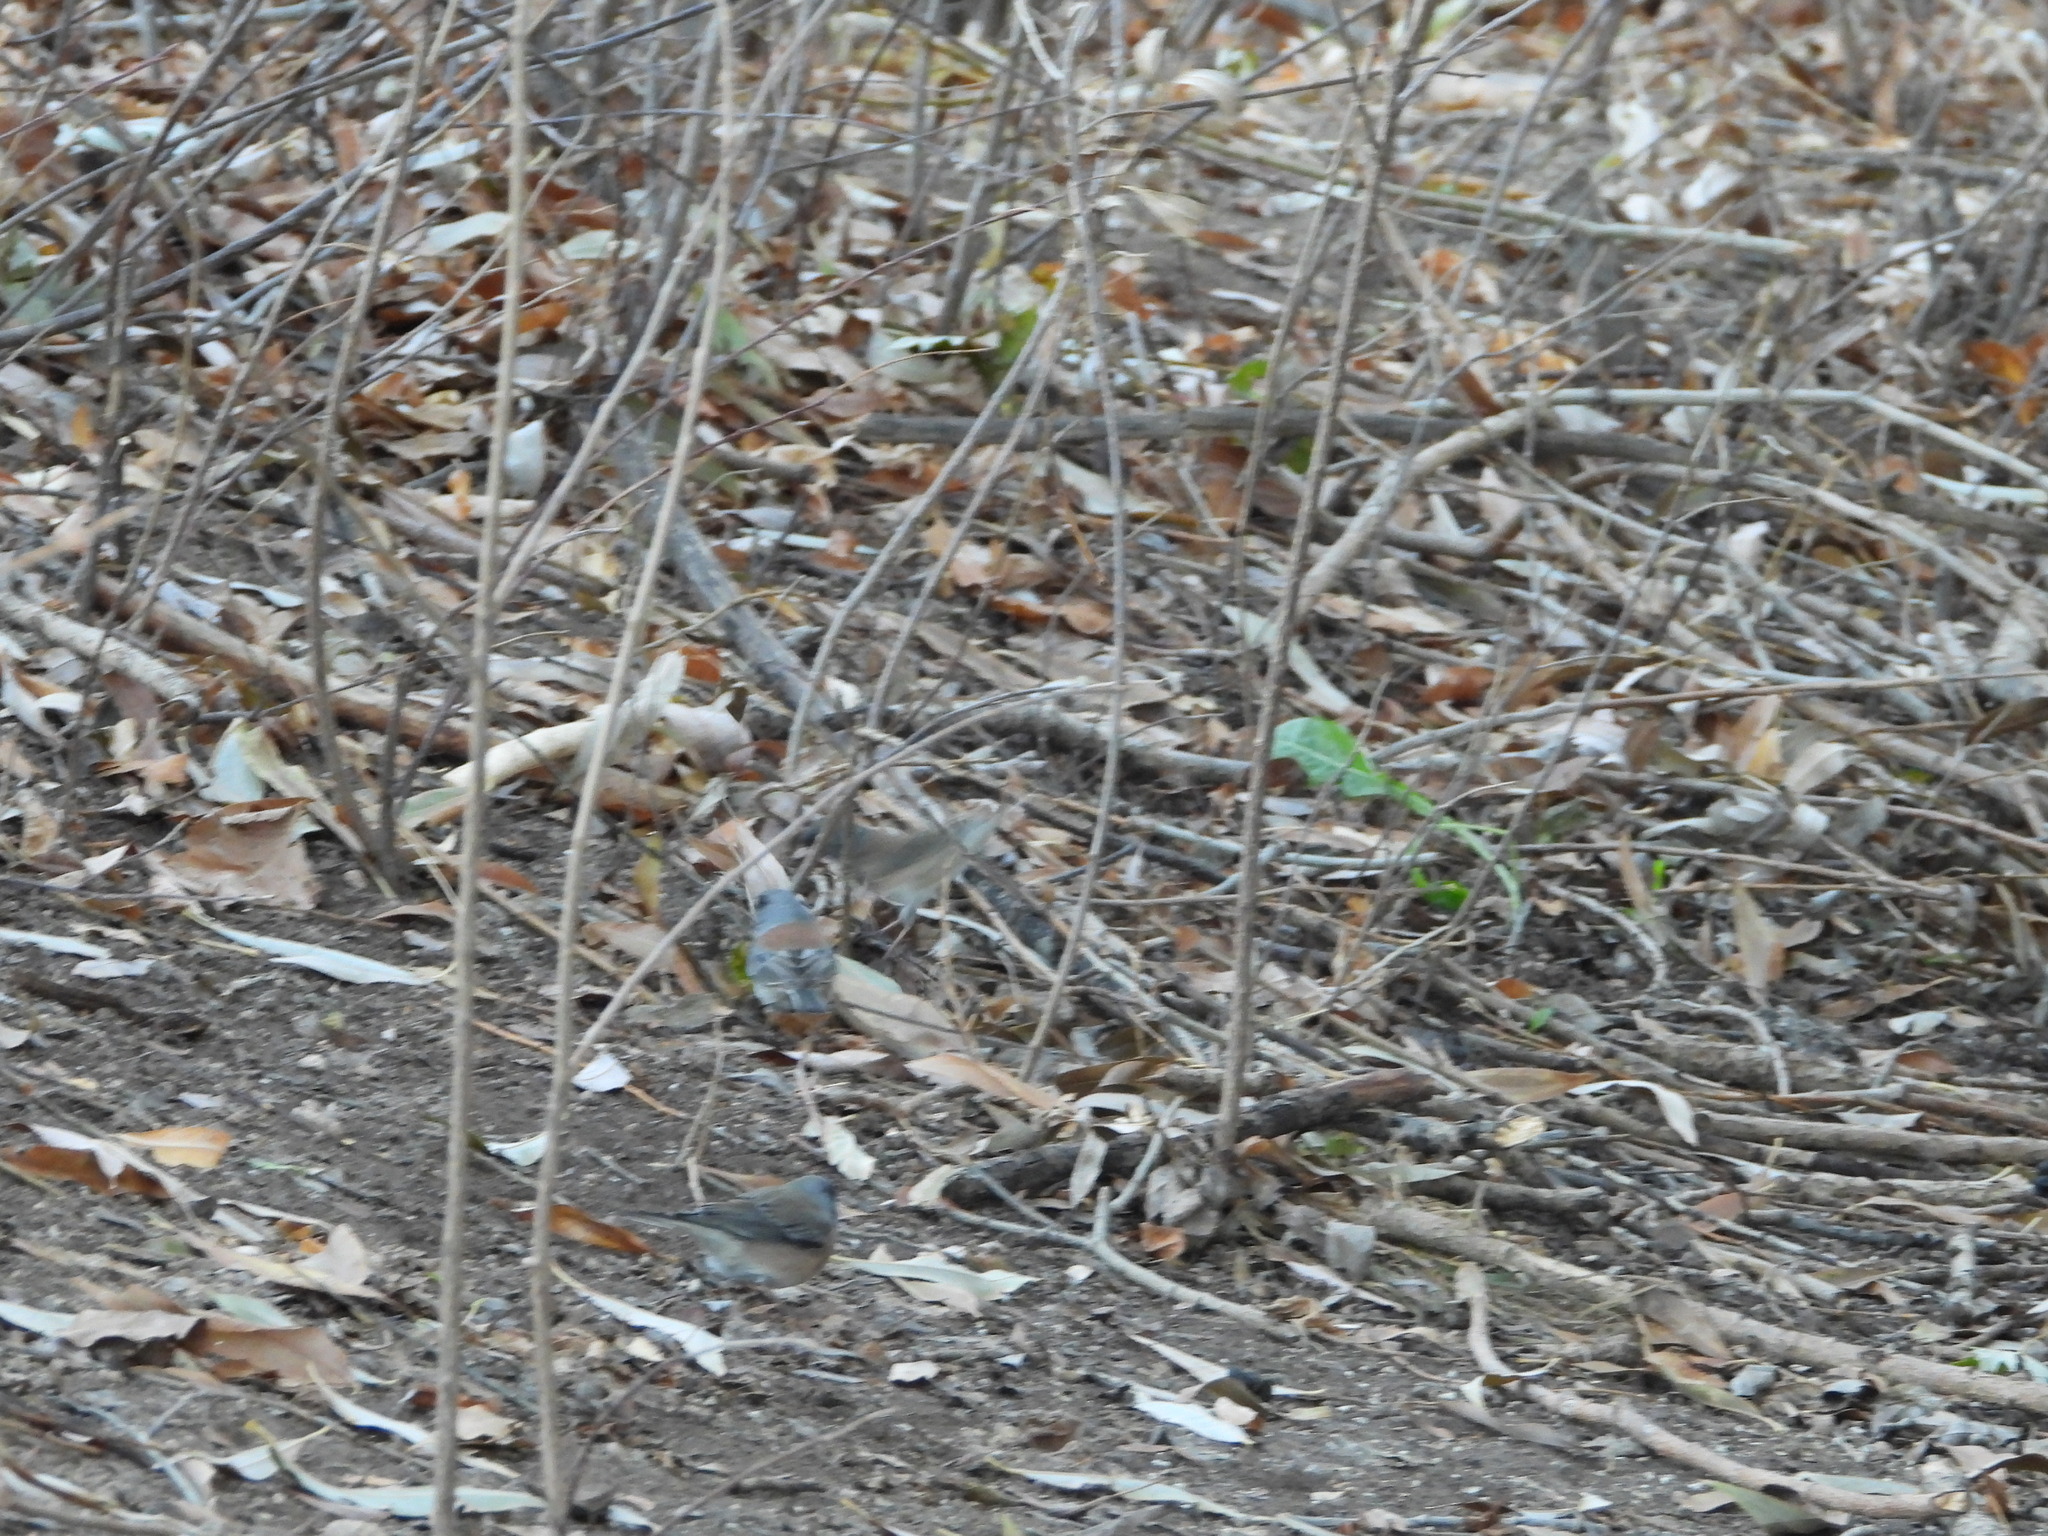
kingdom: Animalia
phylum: Chordata
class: Aves
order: Passeriformes
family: Passerellidae
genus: Junco
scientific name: Junco hyemalis
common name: Dark-eyed junco
